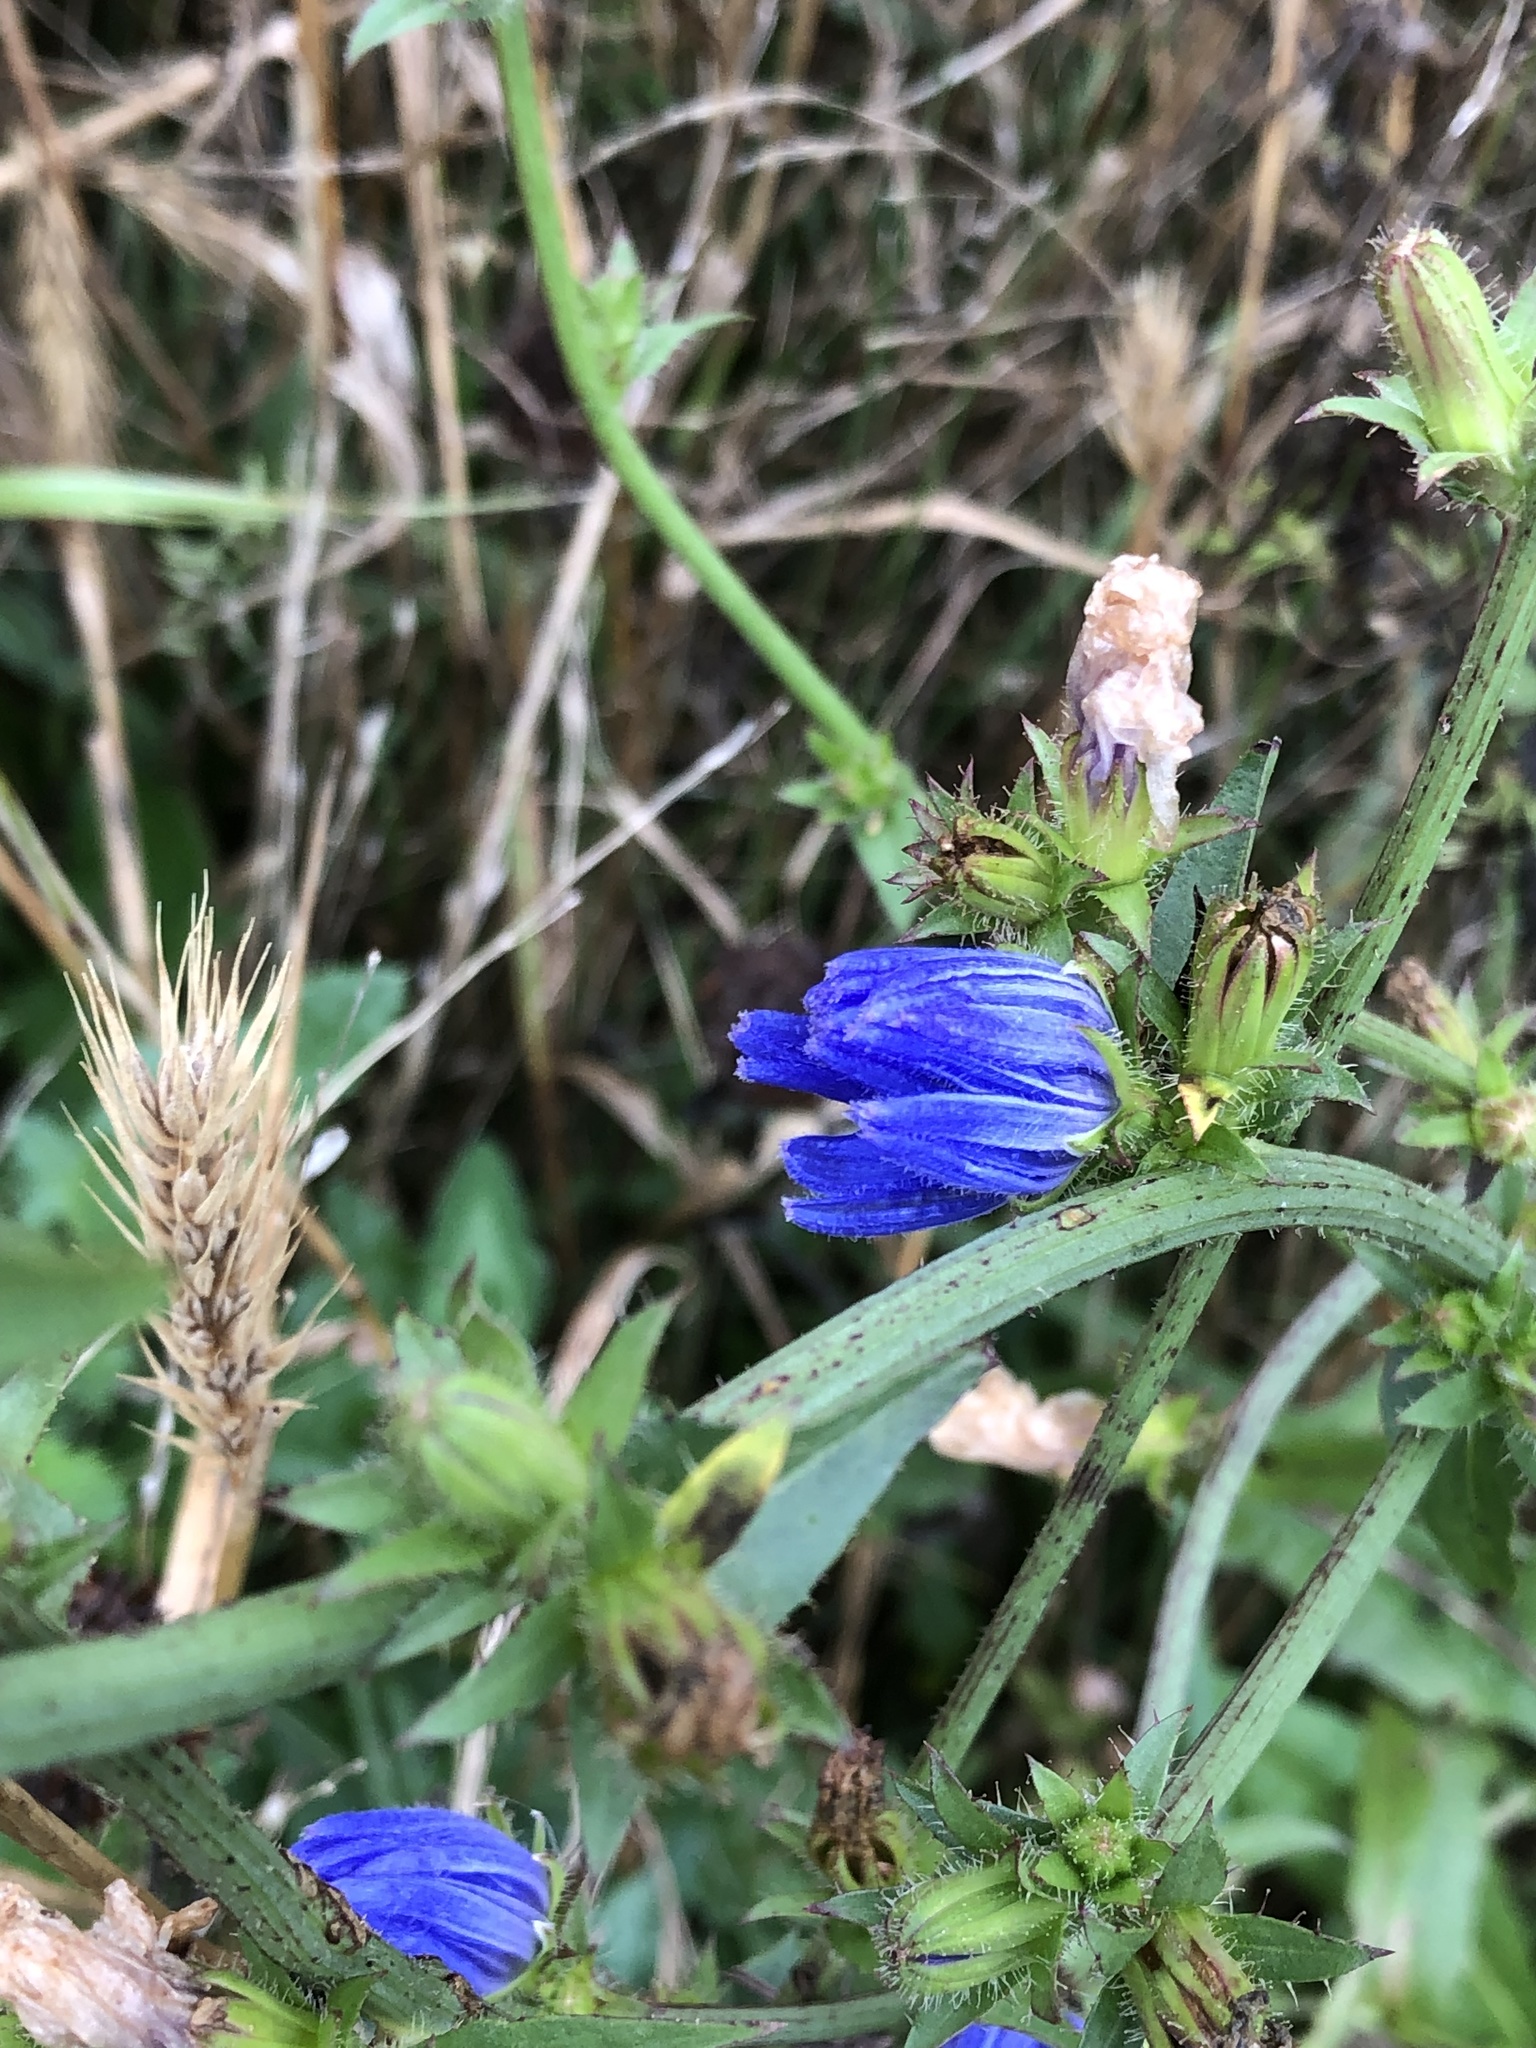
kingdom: Plantae
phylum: Tracheophyta
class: Magnoliopsida
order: Asterales
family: Asteraceae
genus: Cichorium
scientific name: Cichorium intybus
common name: Chicory
